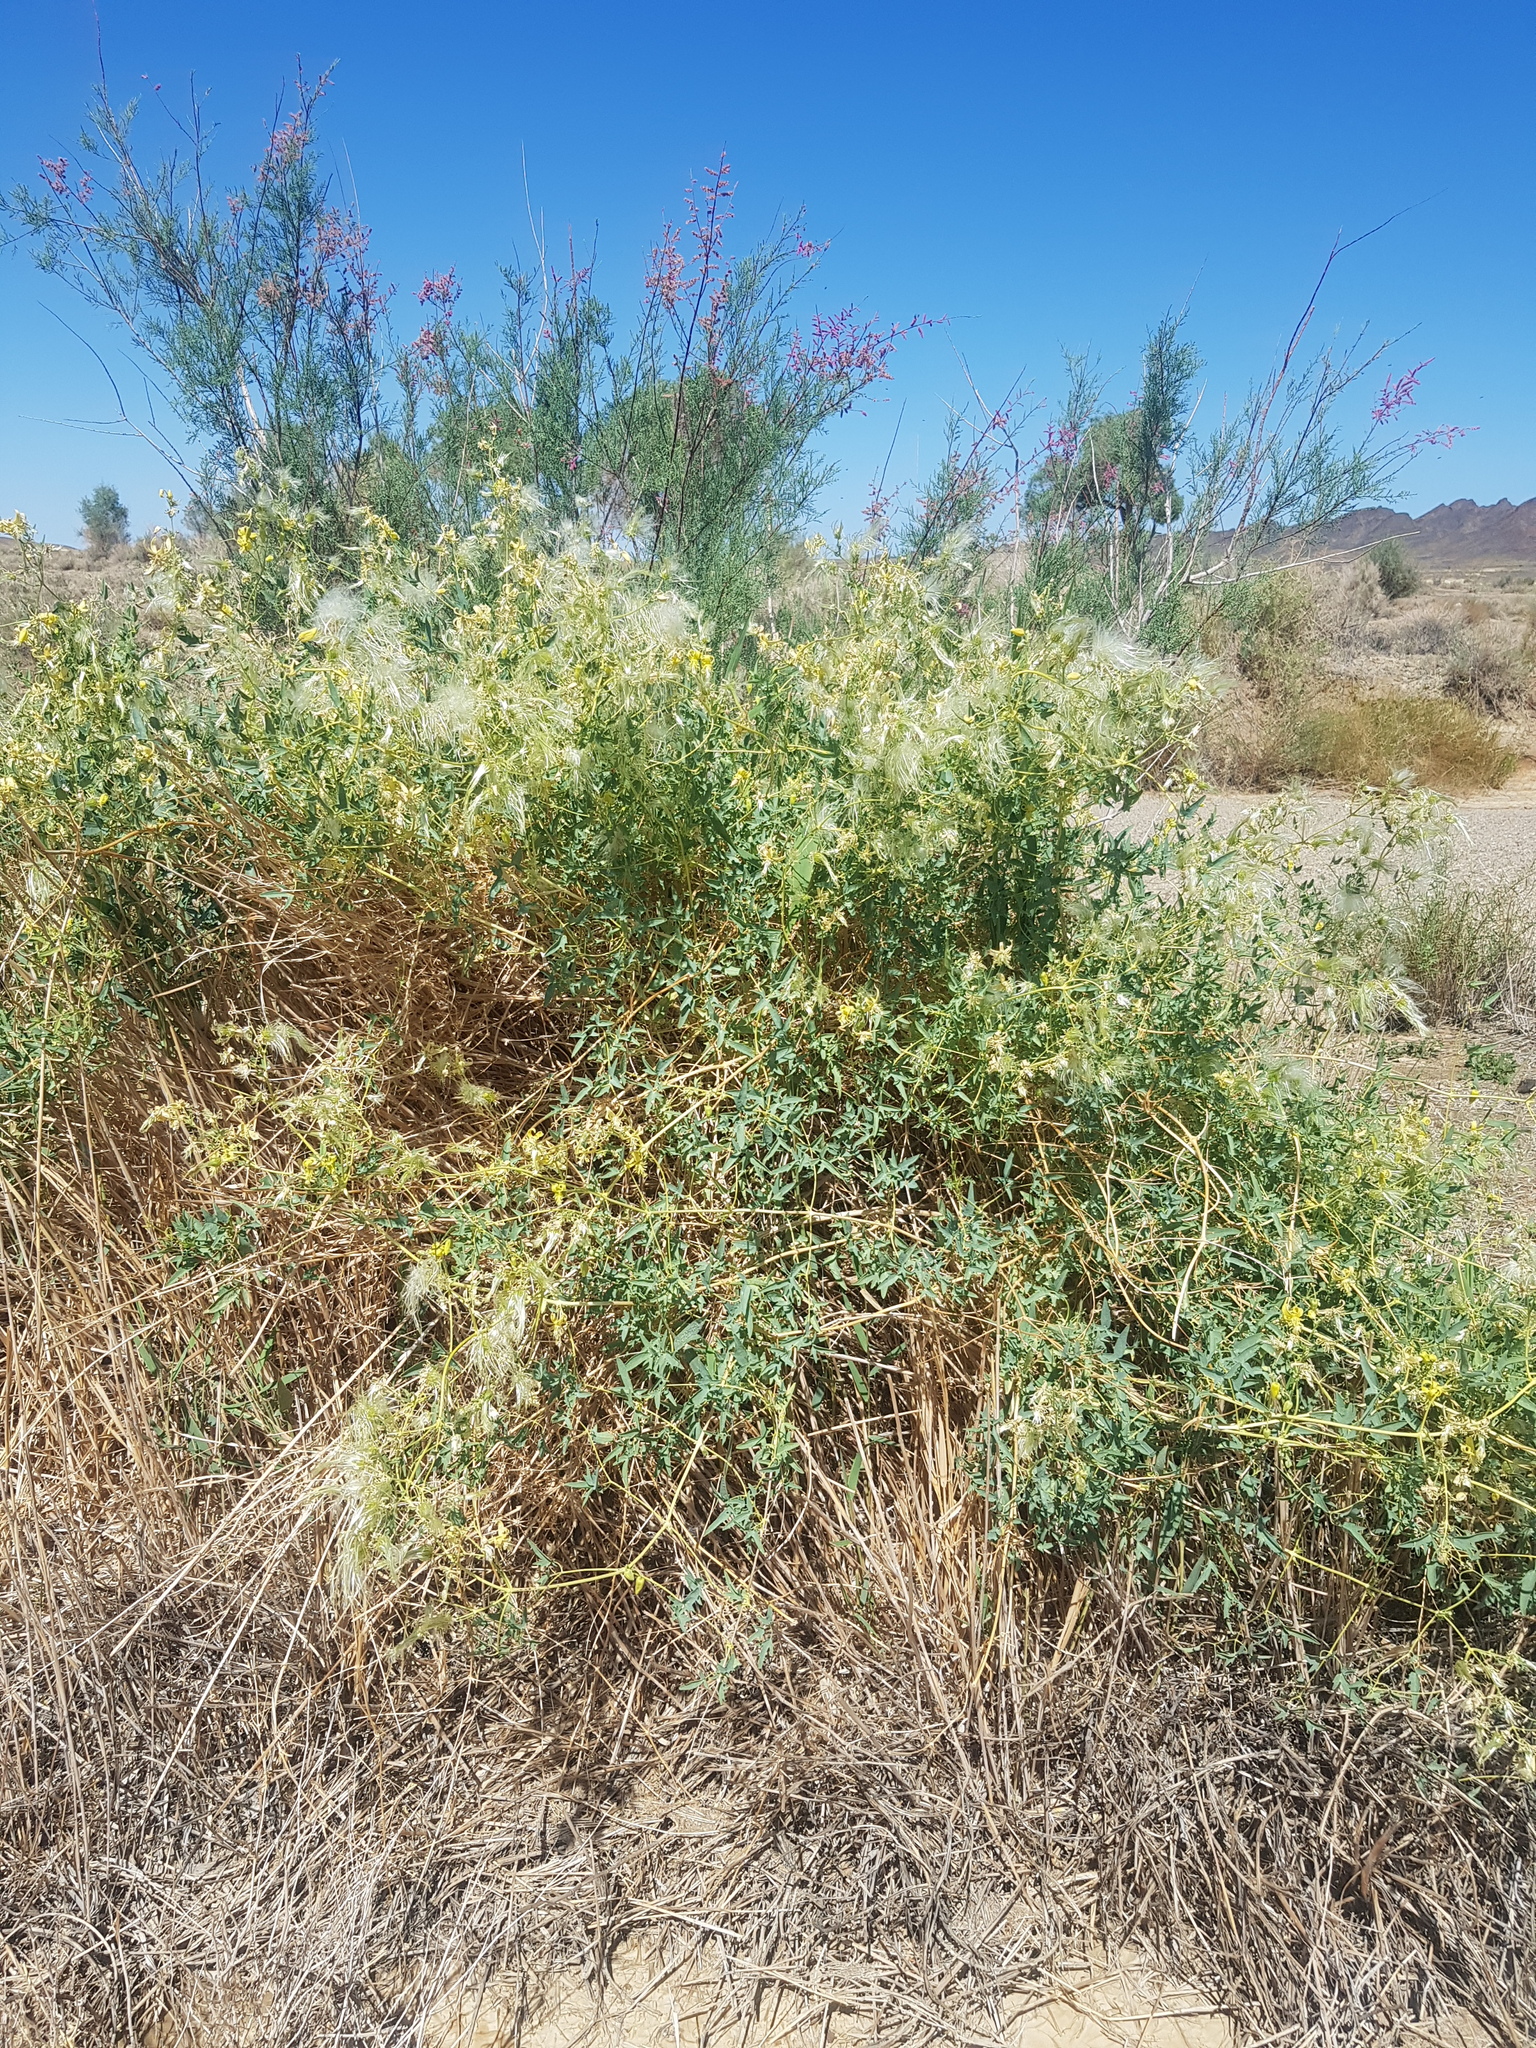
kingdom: Plantae
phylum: Tracheophyta
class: Magnoliopsida
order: Ranunculales
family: Ranunculaceae
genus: Clematis
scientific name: Clematis orientalis
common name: Oriental virgin's-bower
